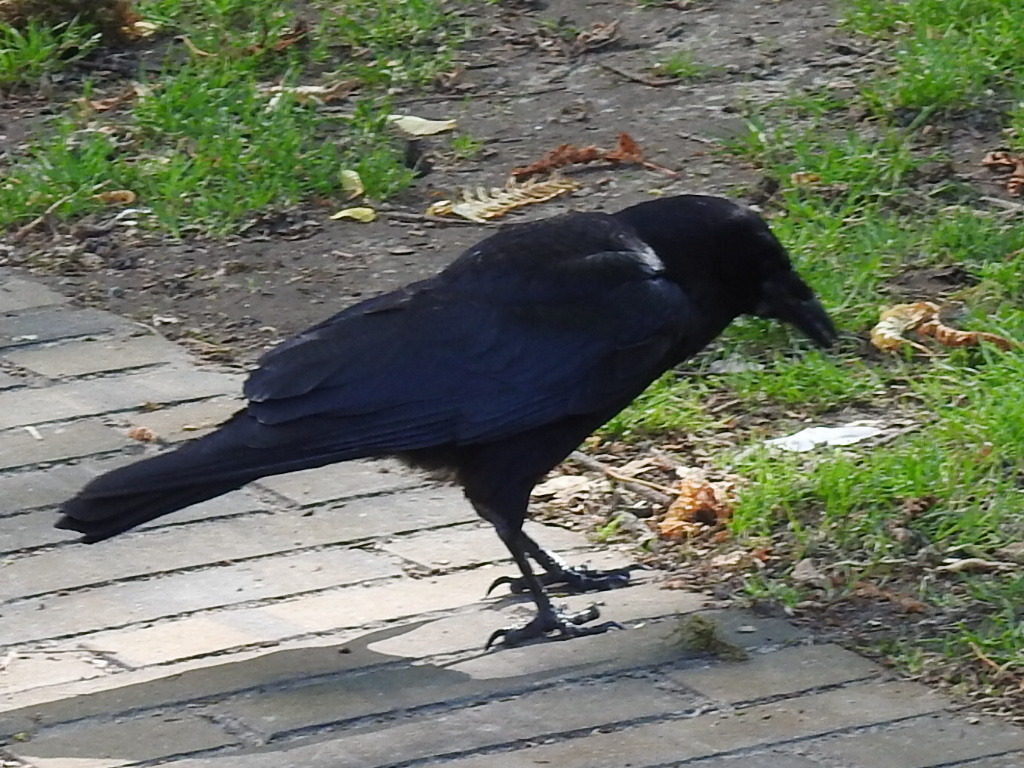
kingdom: Animalia
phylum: Chordata
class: Aves
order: Passeriformes
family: Corvidae
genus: Corvus
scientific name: Corvus brachyrhynchos
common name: American crow
